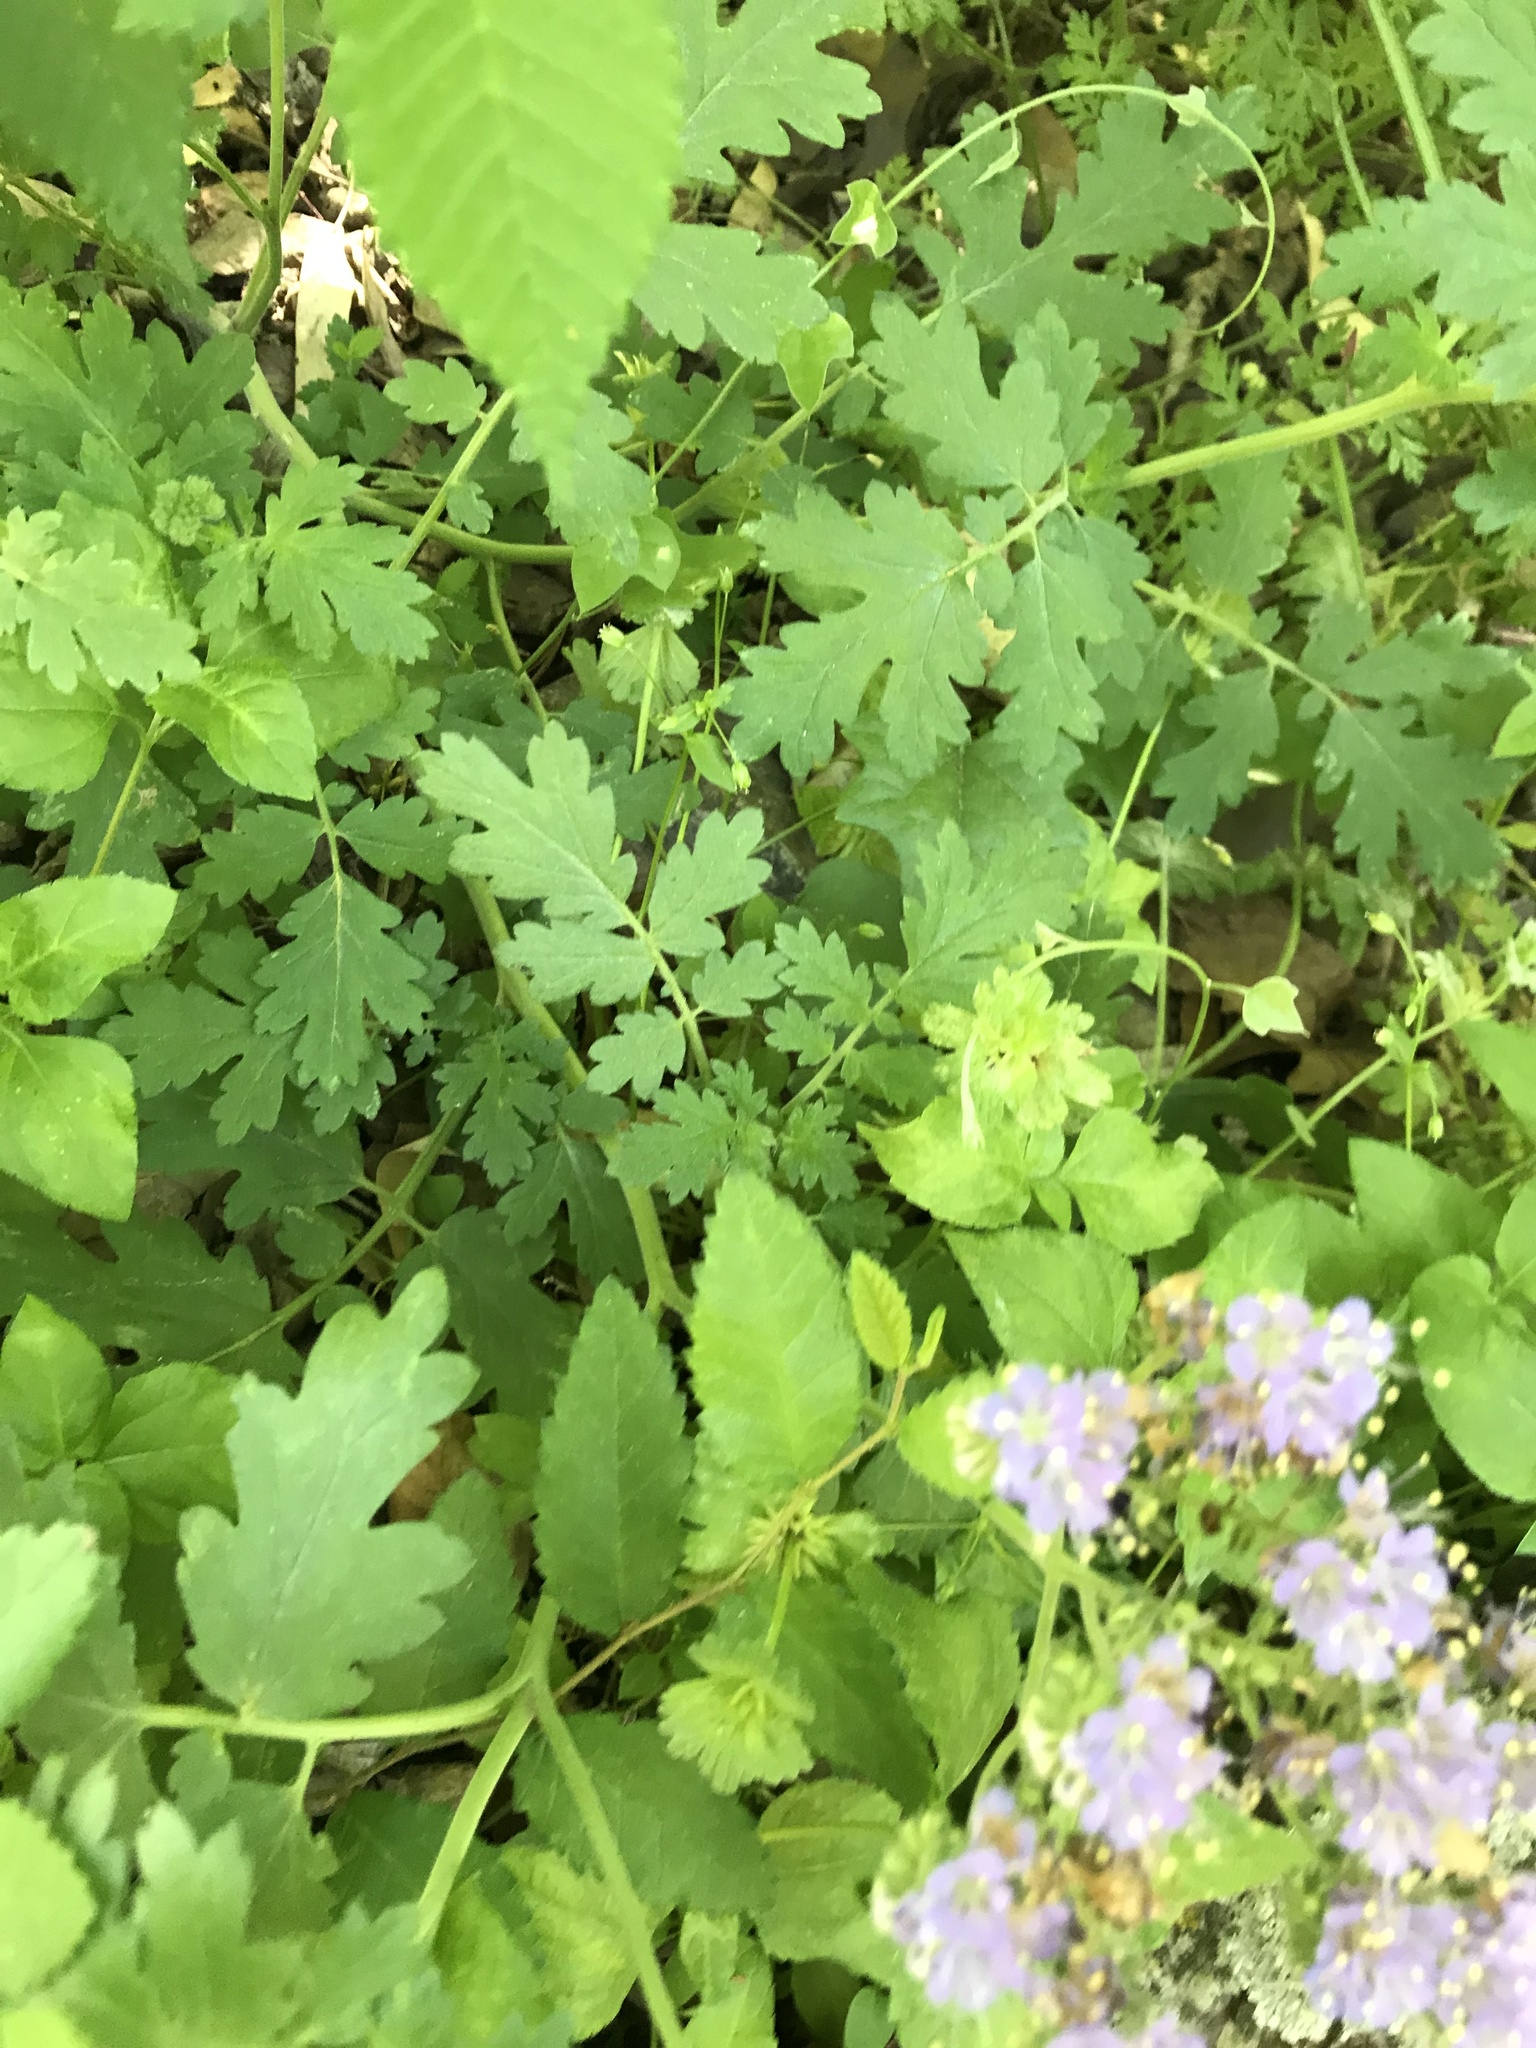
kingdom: Plantae
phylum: Tracheophyta
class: Magnoliopsida
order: Boraginales
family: Hydrophyllaceae
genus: Phacelia
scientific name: Phacelia congesta
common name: Blue curls
